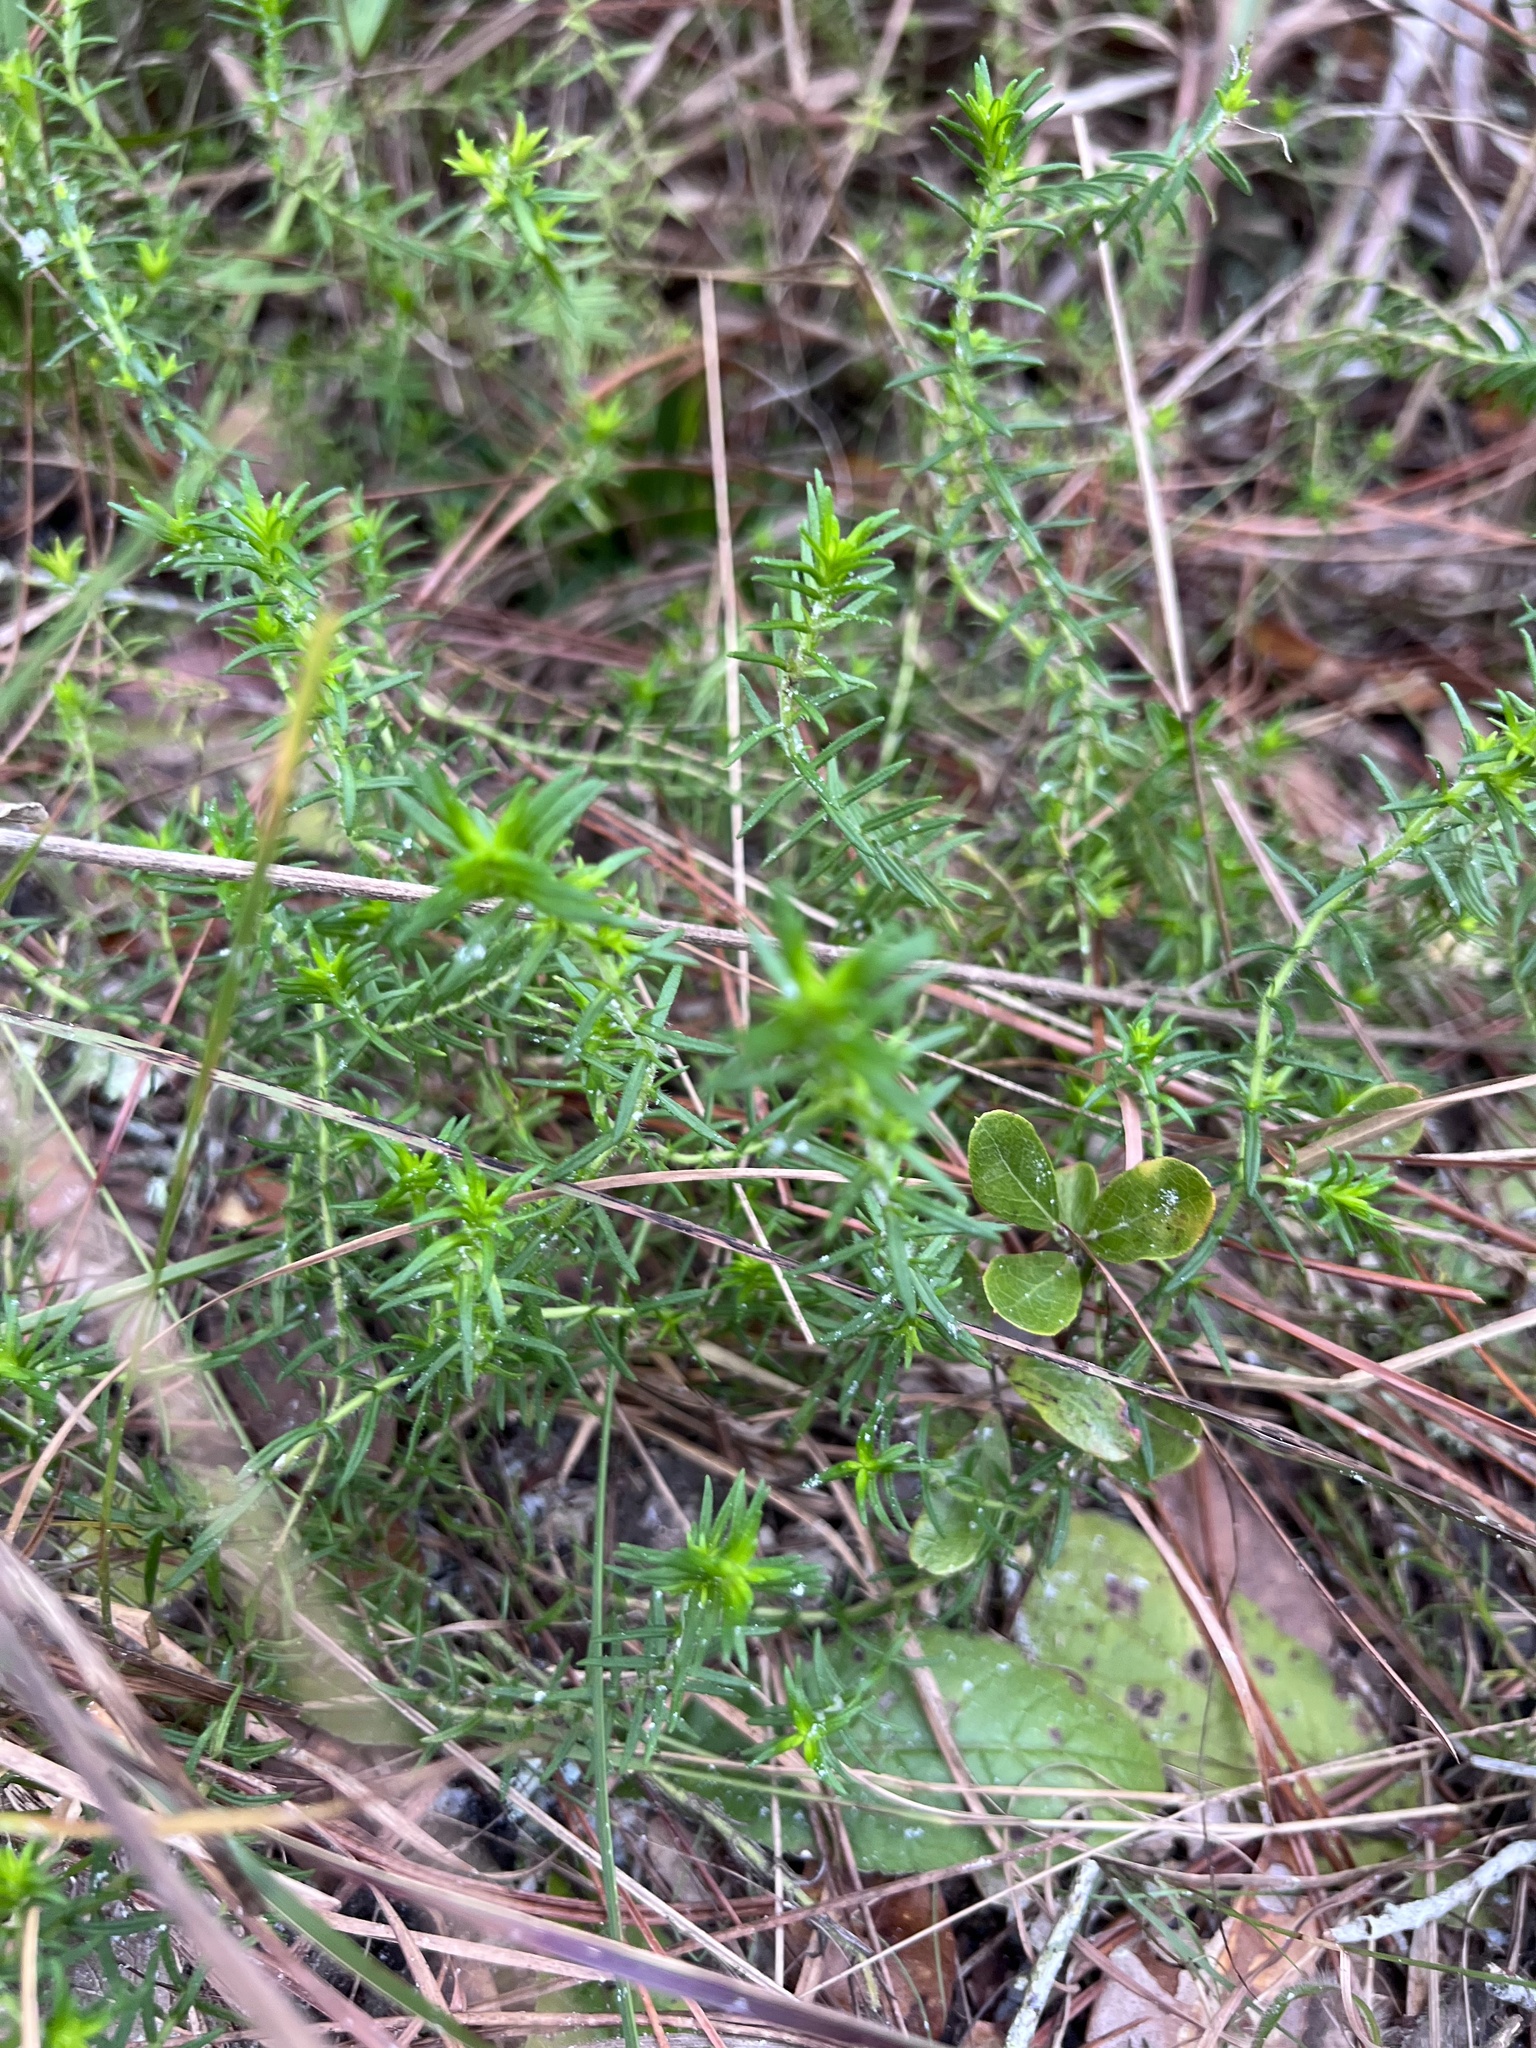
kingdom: Plantae
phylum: Tracheophyta
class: Magnoliopsida
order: Lamiales
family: Lamiaceae
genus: Piloblephis
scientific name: Piloblephis rigida
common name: Wild pennyroyal
